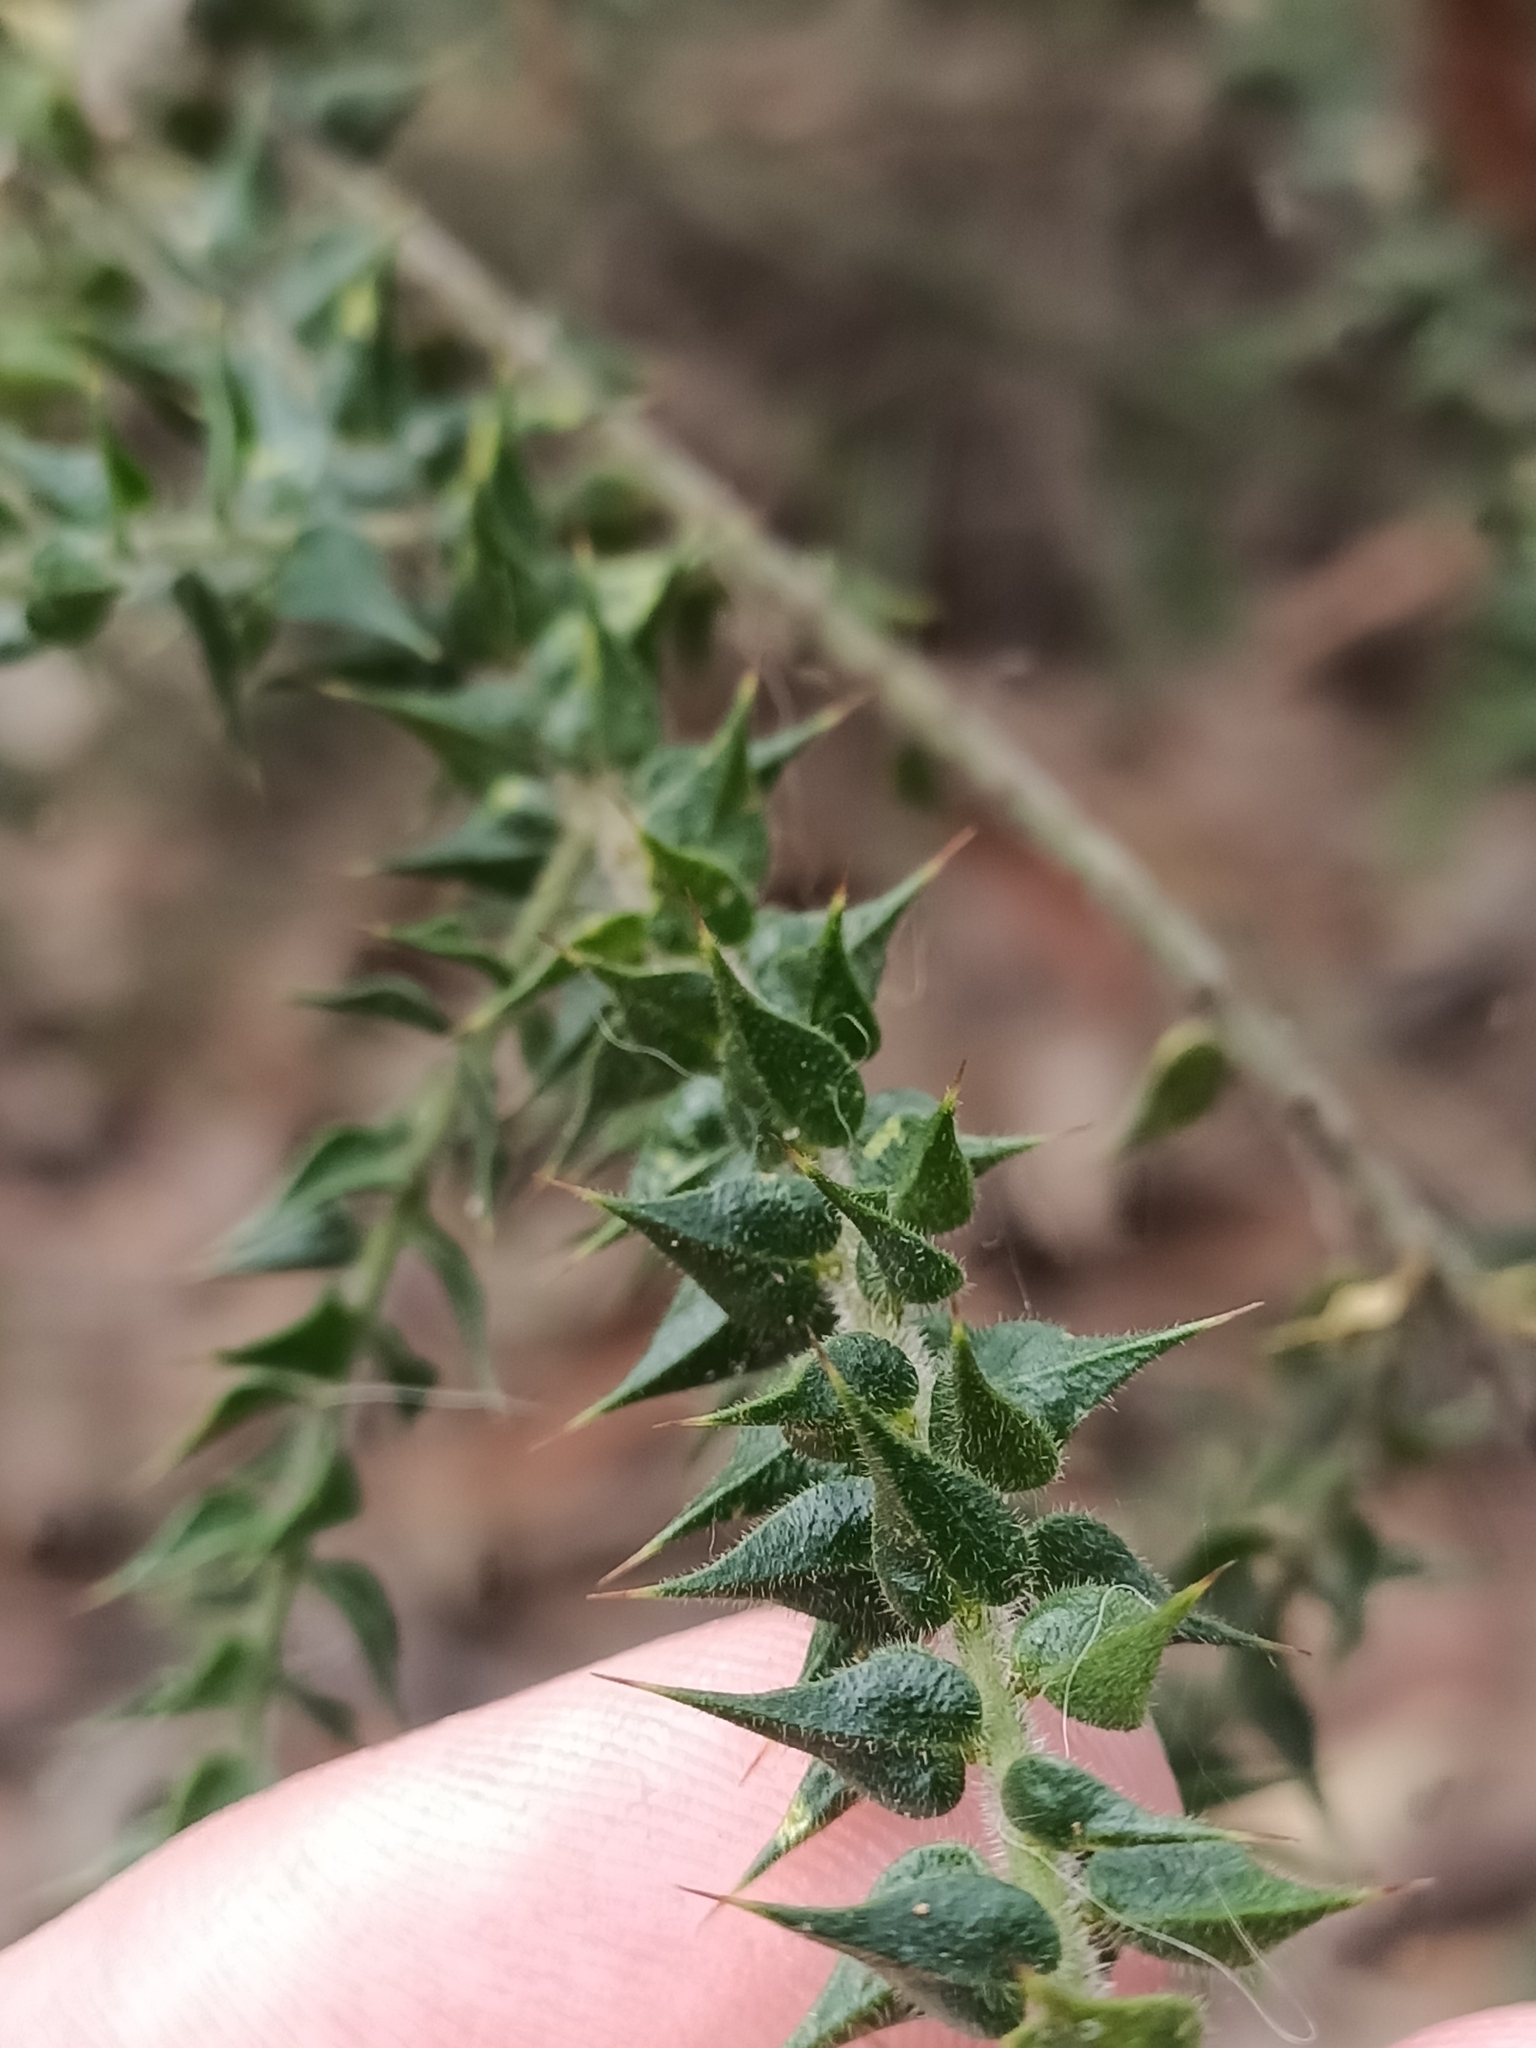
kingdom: Plantae
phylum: Tracheophyta
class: Magnoliopsida
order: Fabales
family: Fabaceae
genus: Daviesia
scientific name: Daviesia villifera
